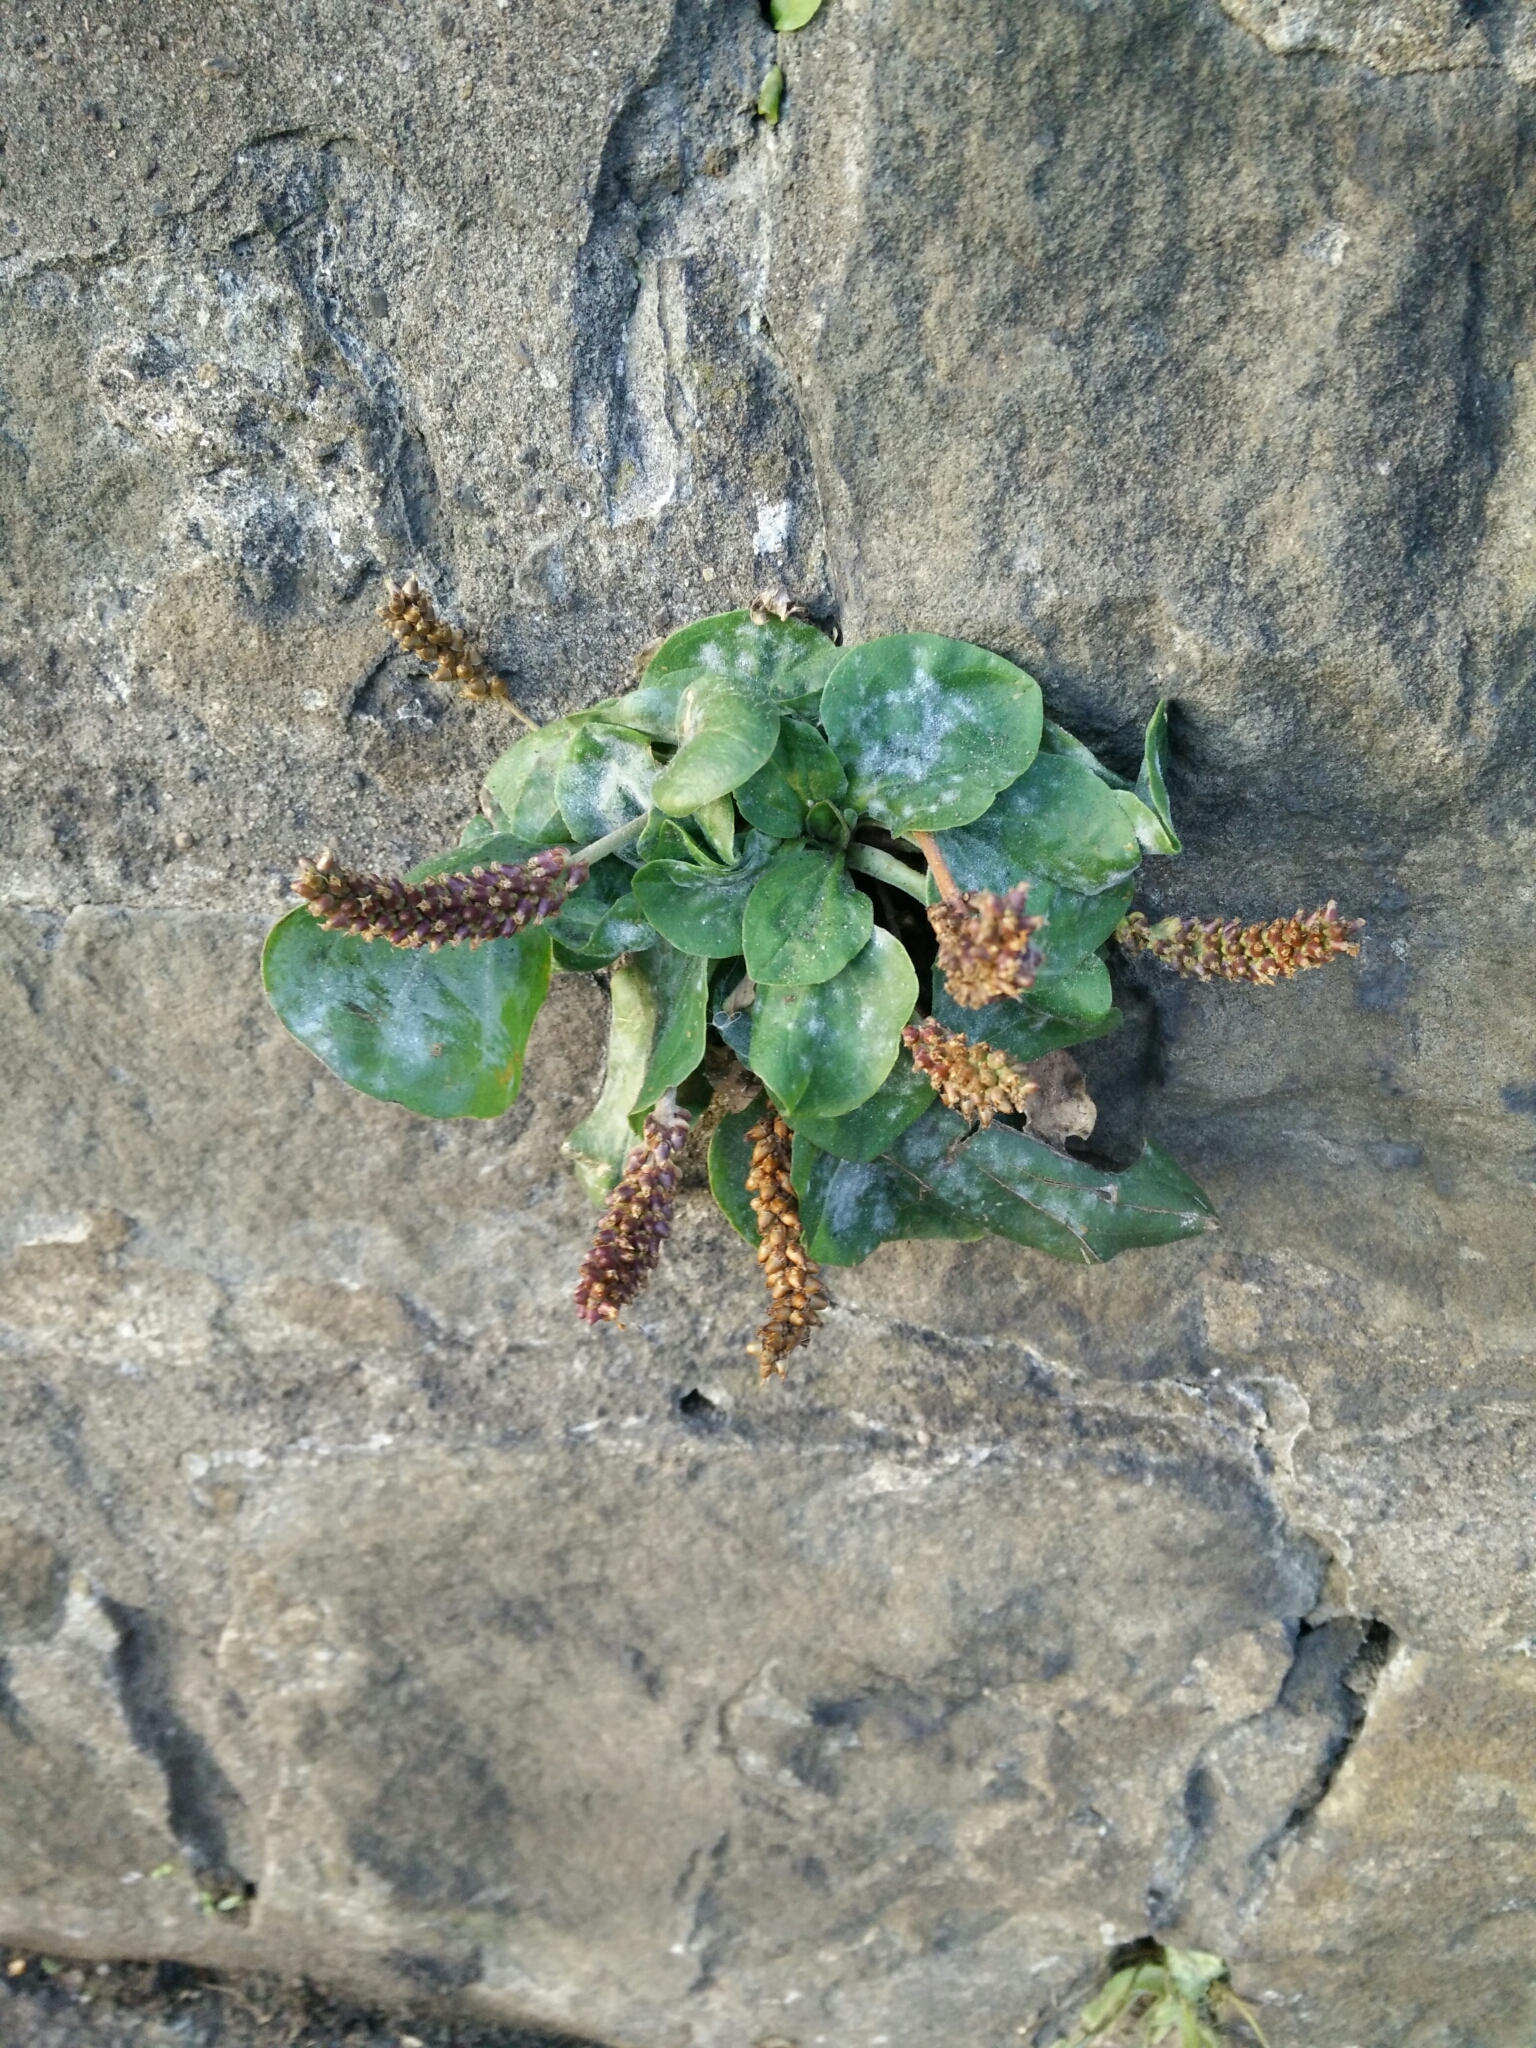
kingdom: Plantae
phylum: Tracheophyta
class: Magnoliopsida
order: Lamiales
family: Plantaginaceae
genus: Plantago
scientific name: Plantago major
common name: Common plantain
